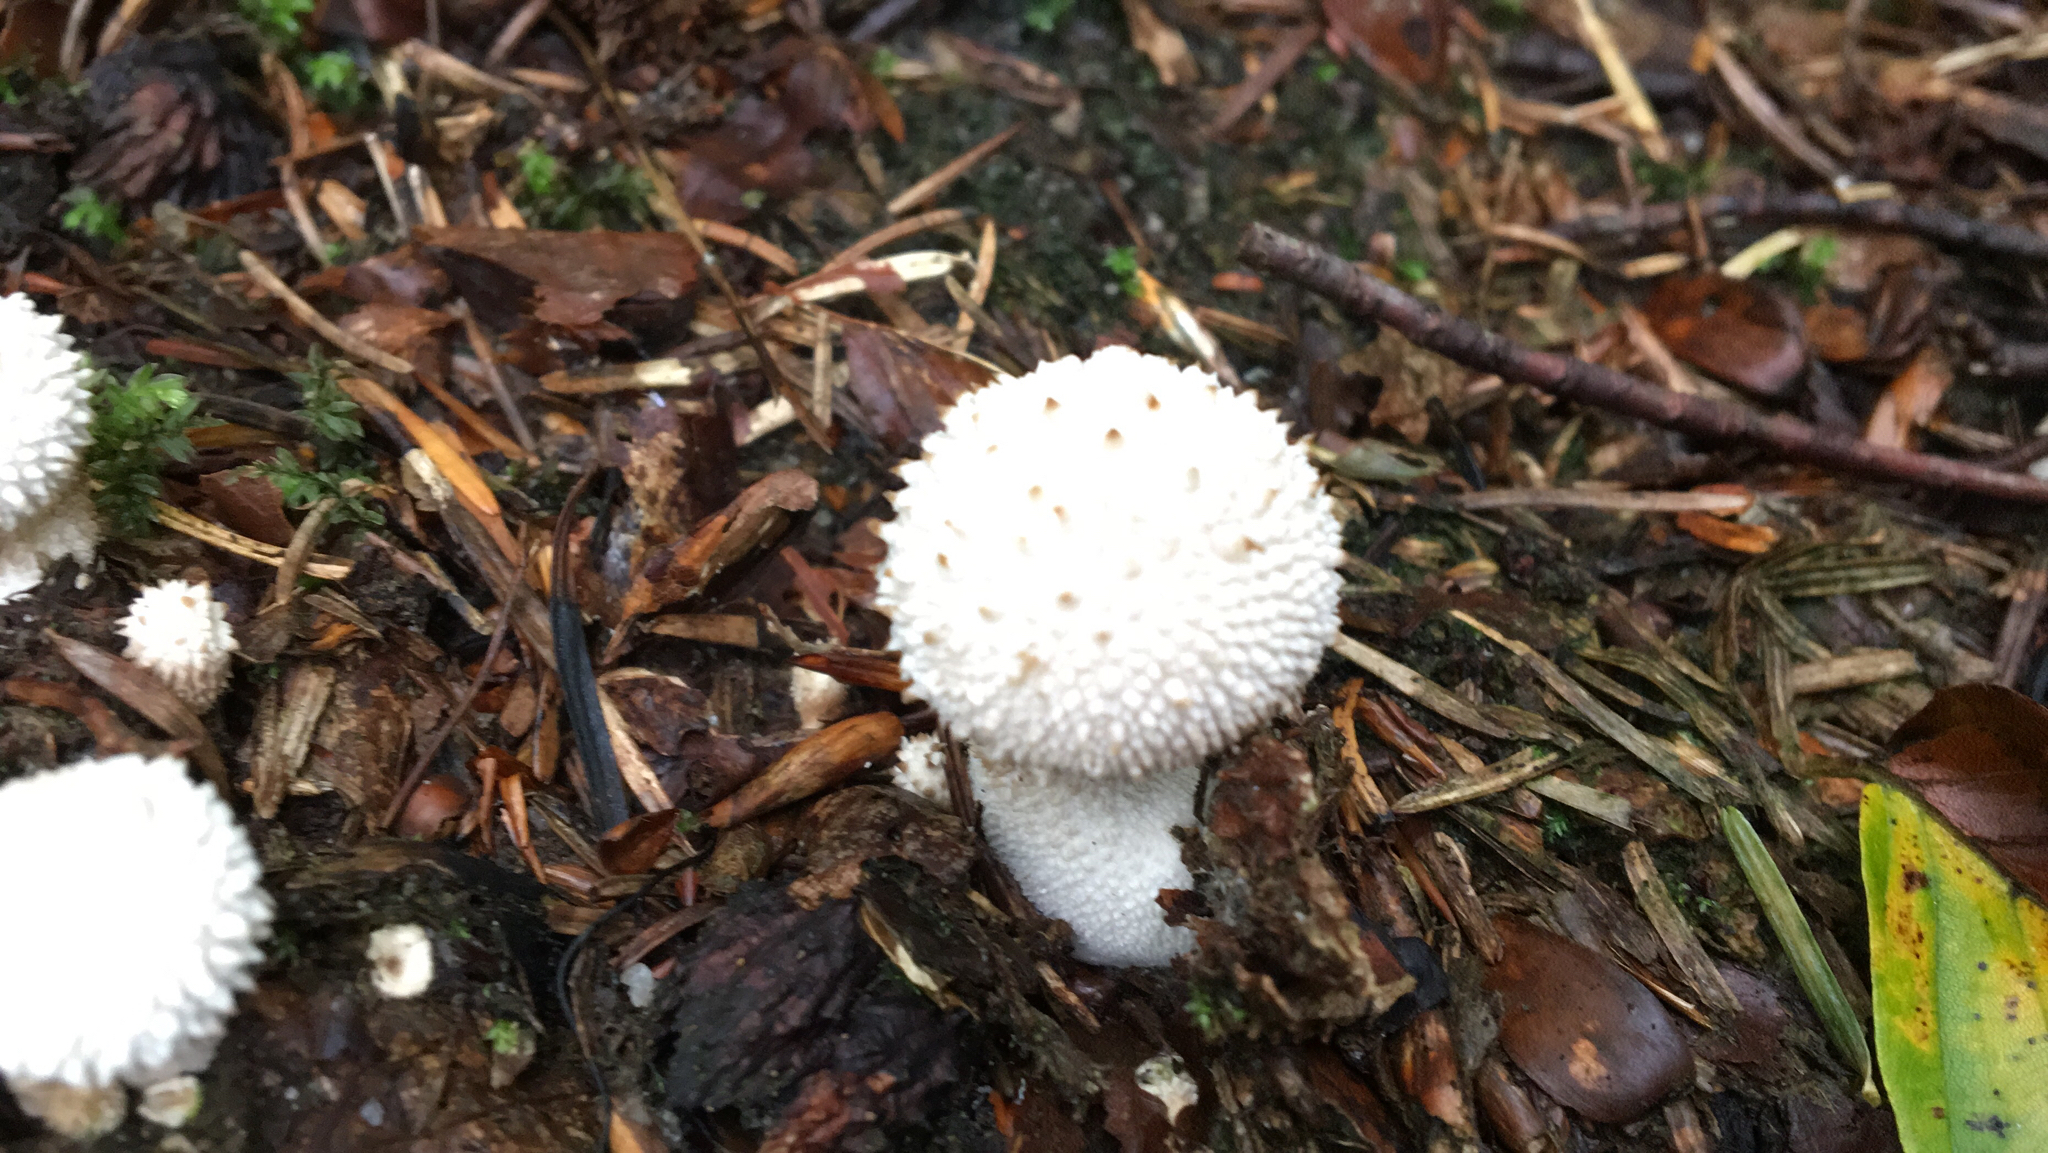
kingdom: Fungi
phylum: Basidiomycota
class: Agaricomycetes
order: Agaricales
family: Lycoperdaceae
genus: Lycoperdon
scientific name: Lycoperdon perlatum
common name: Common puffball
